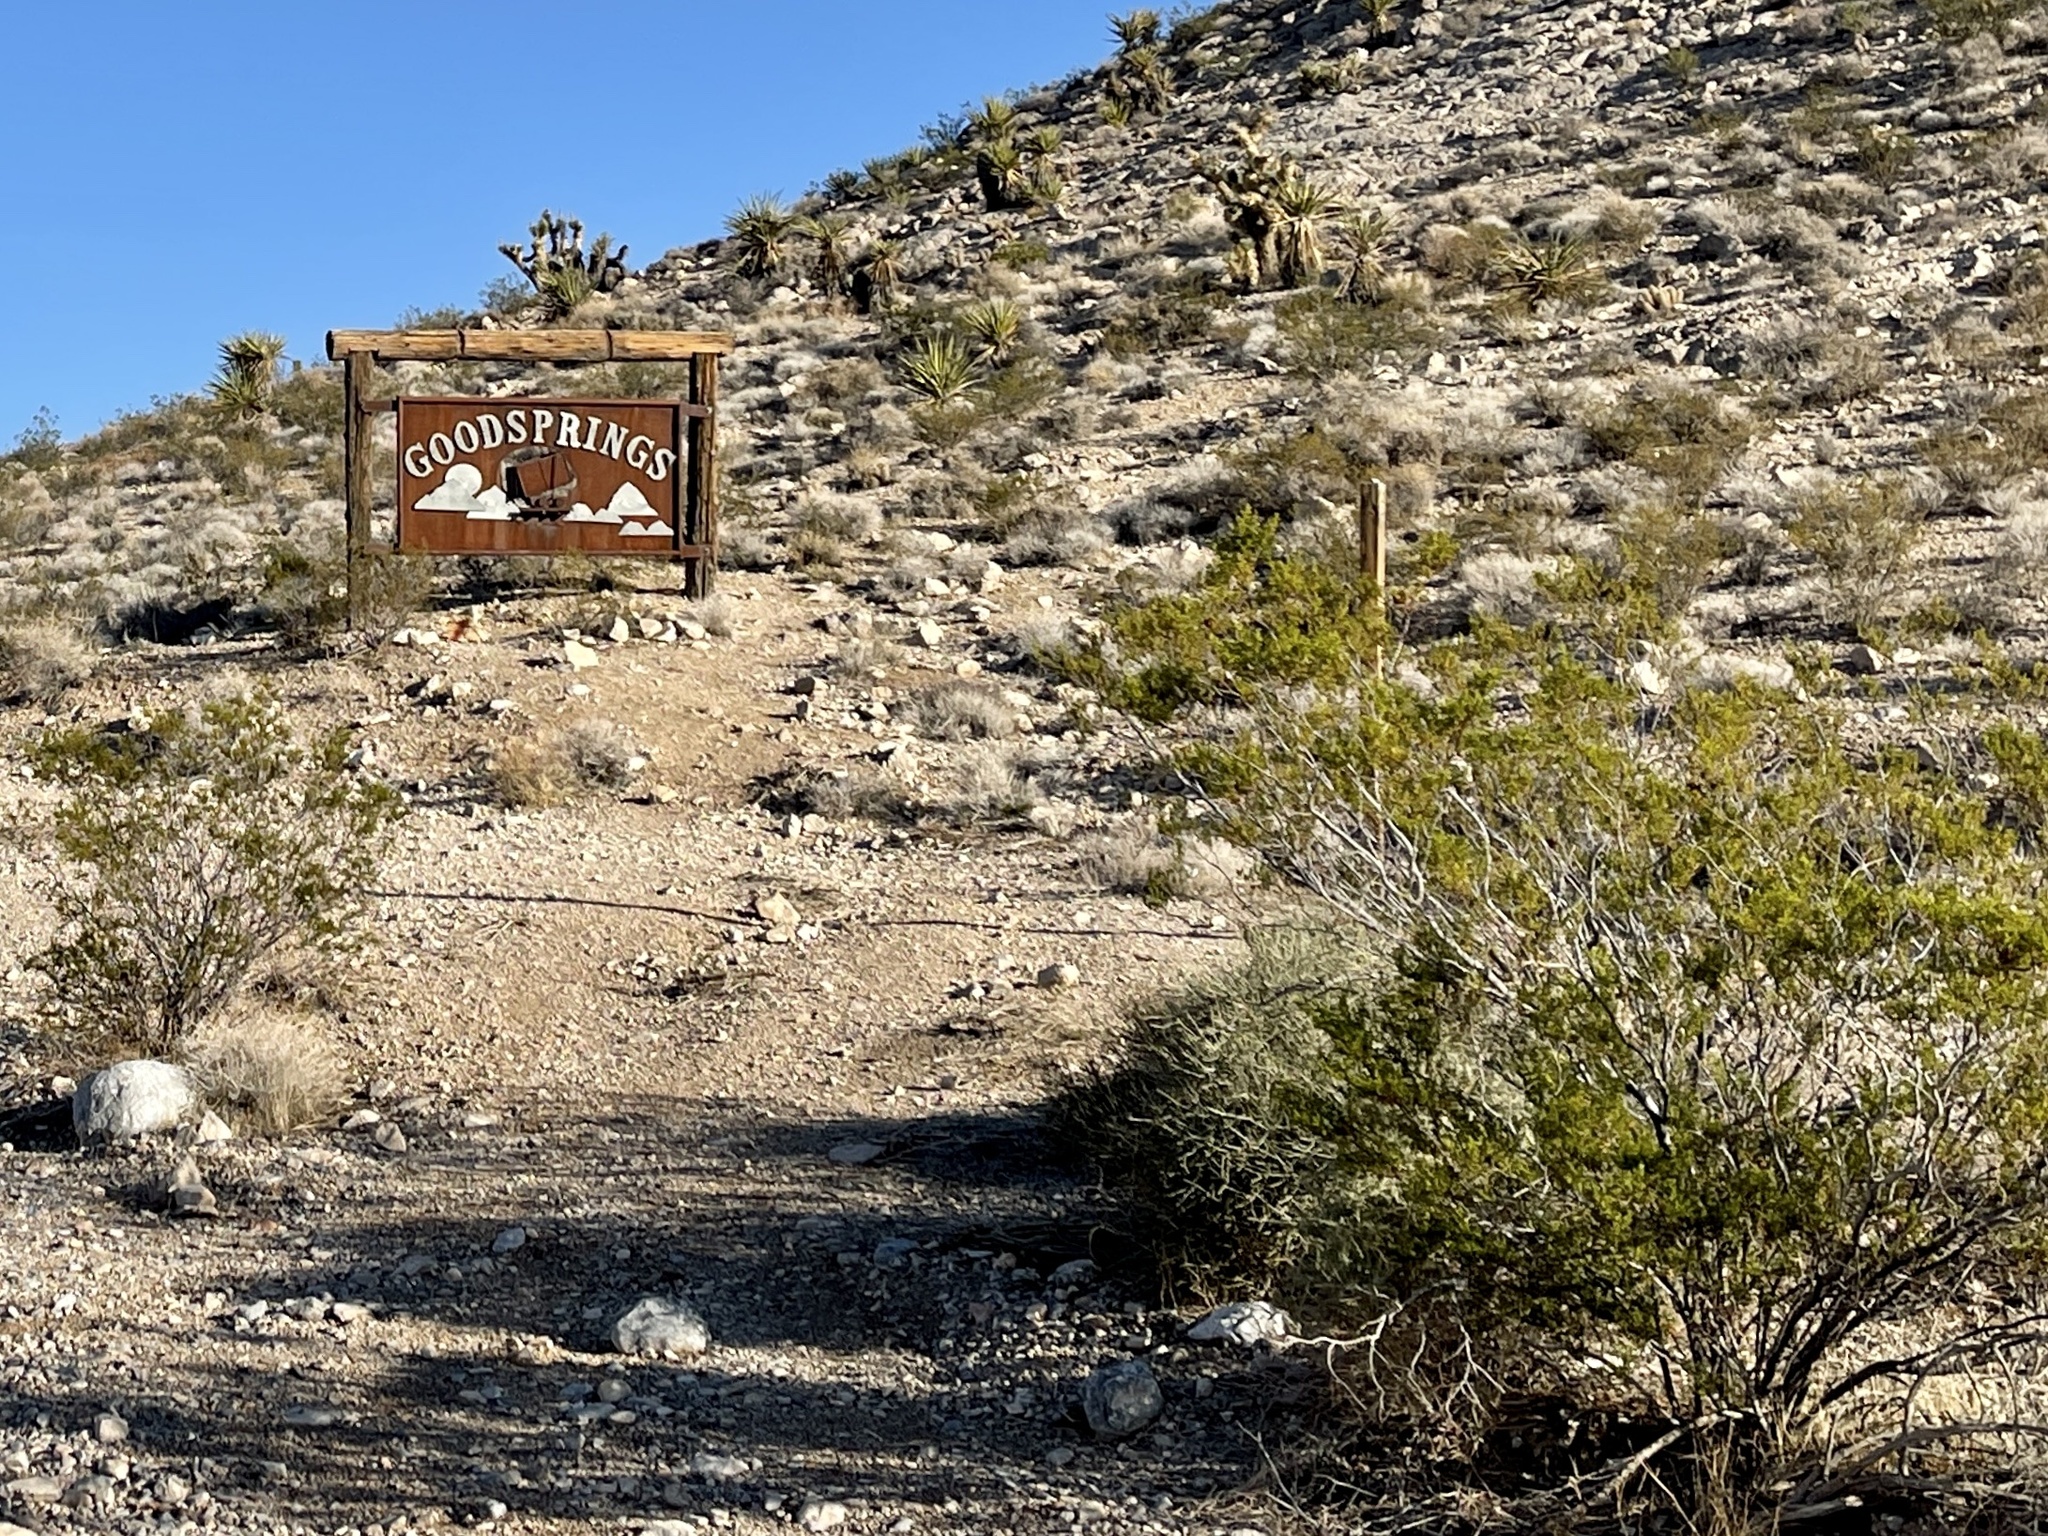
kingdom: Plantae
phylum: Tracheophyta
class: Magnoliopsida
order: Zygophyllales
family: Zygophyllaceae
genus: Larrea
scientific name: Larrea tridentata
